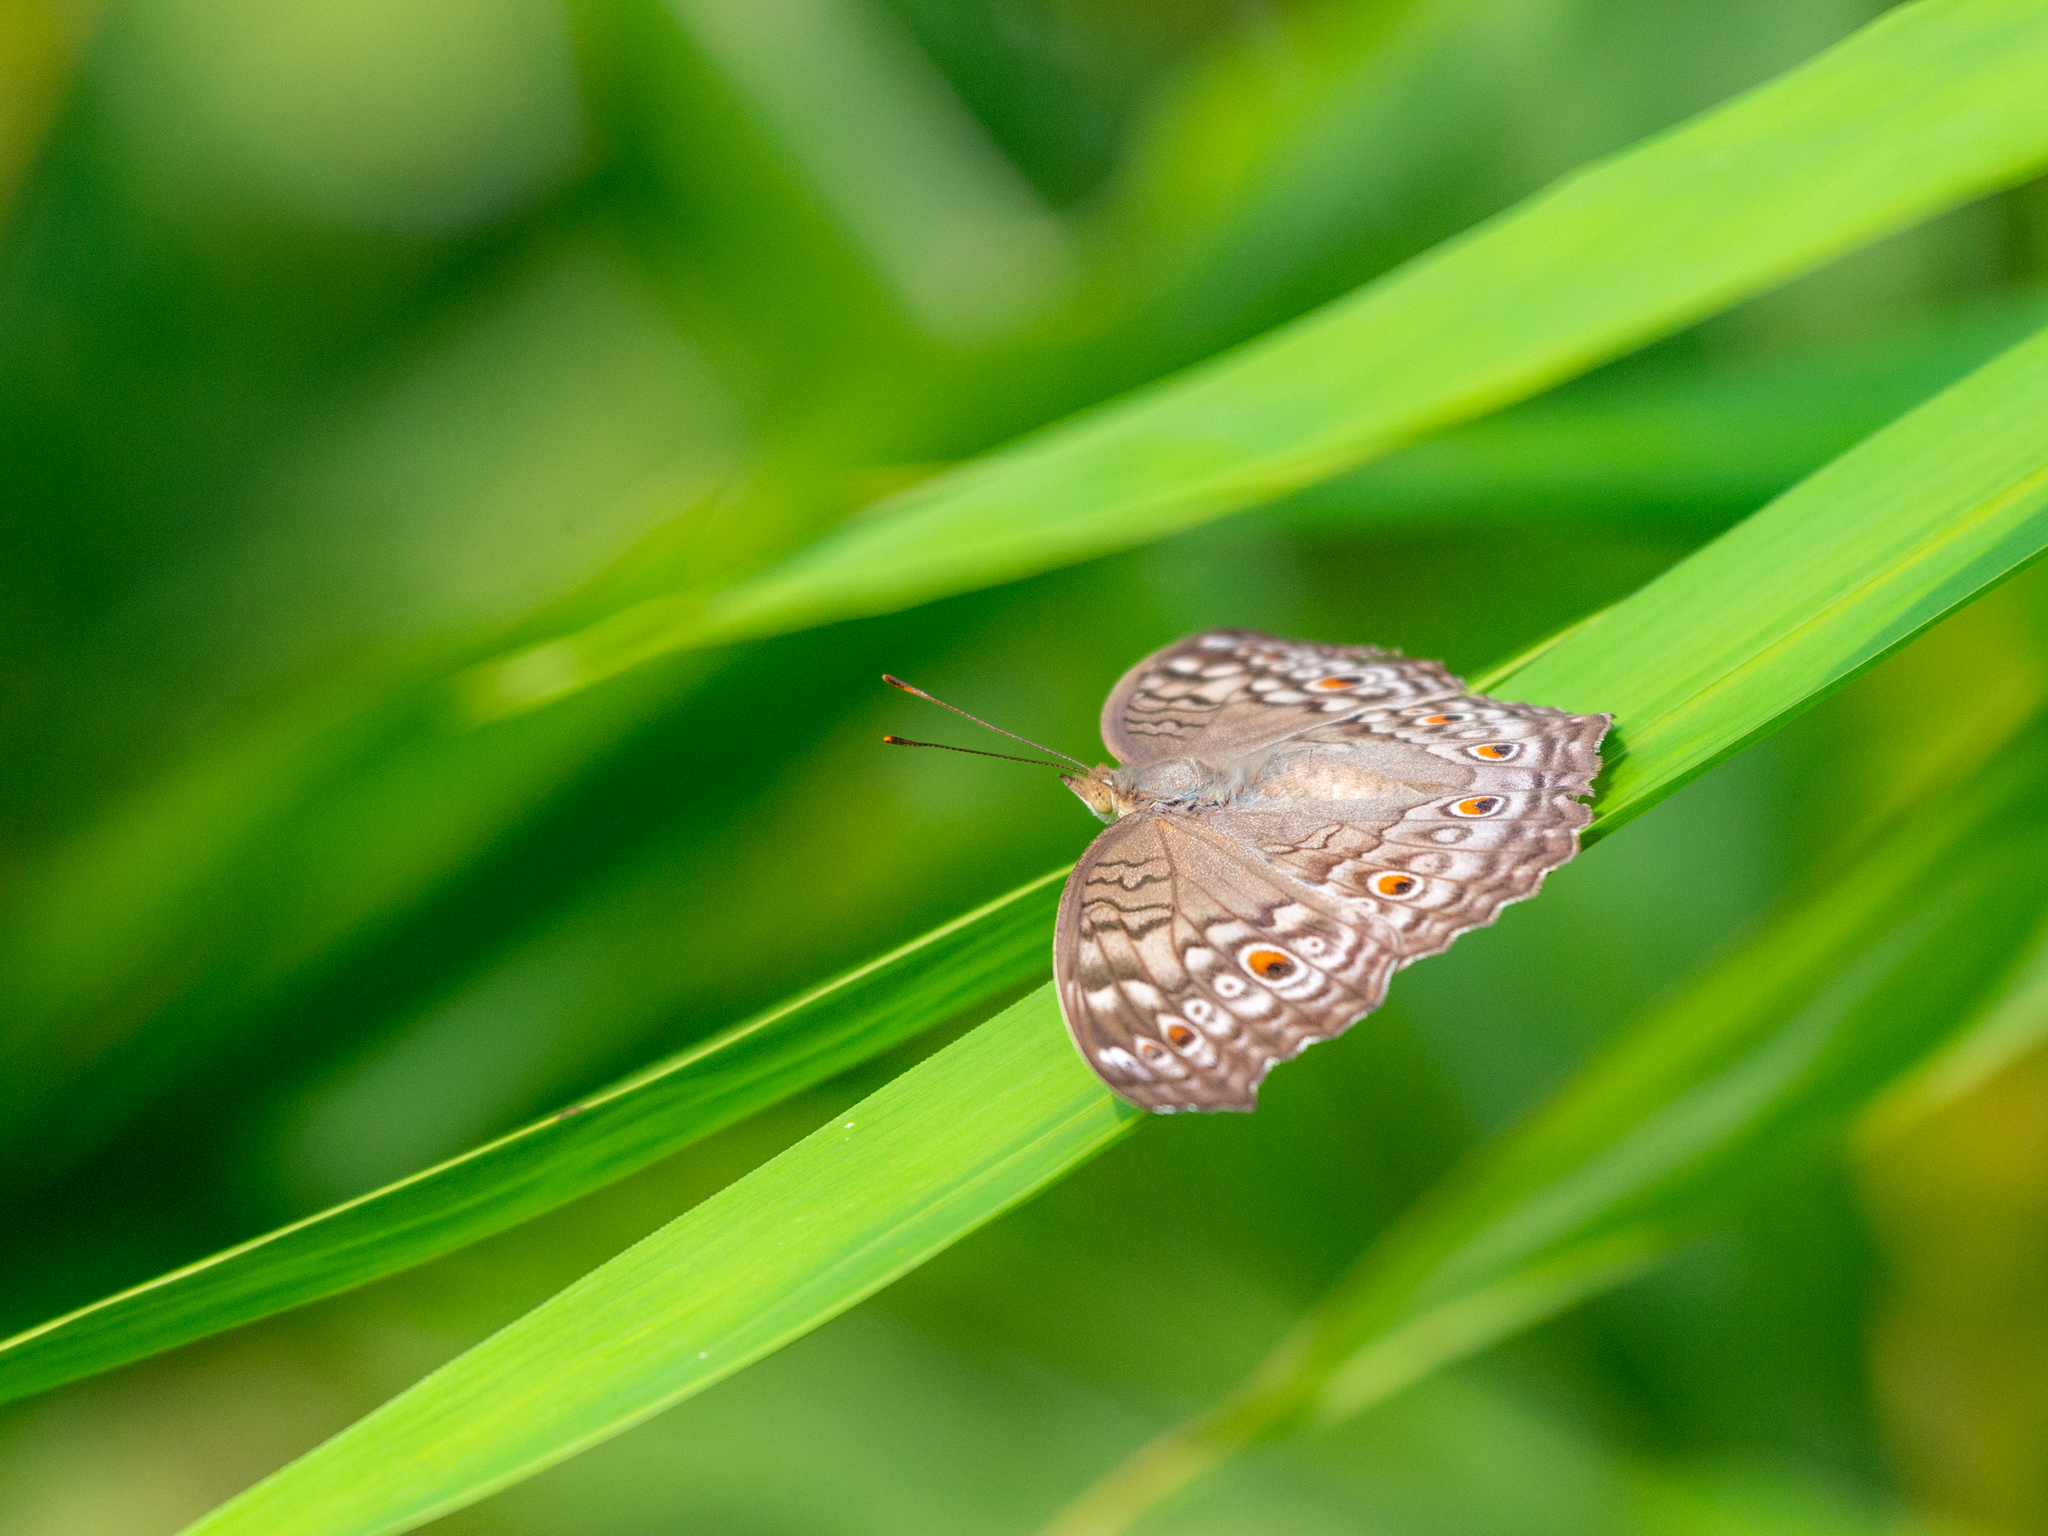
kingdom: Animalia
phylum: Arthropoda
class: Insecta
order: Lepidoptera
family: Nymphalidae
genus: Junonia
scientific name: Junonia atlites
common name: Grey pansy
